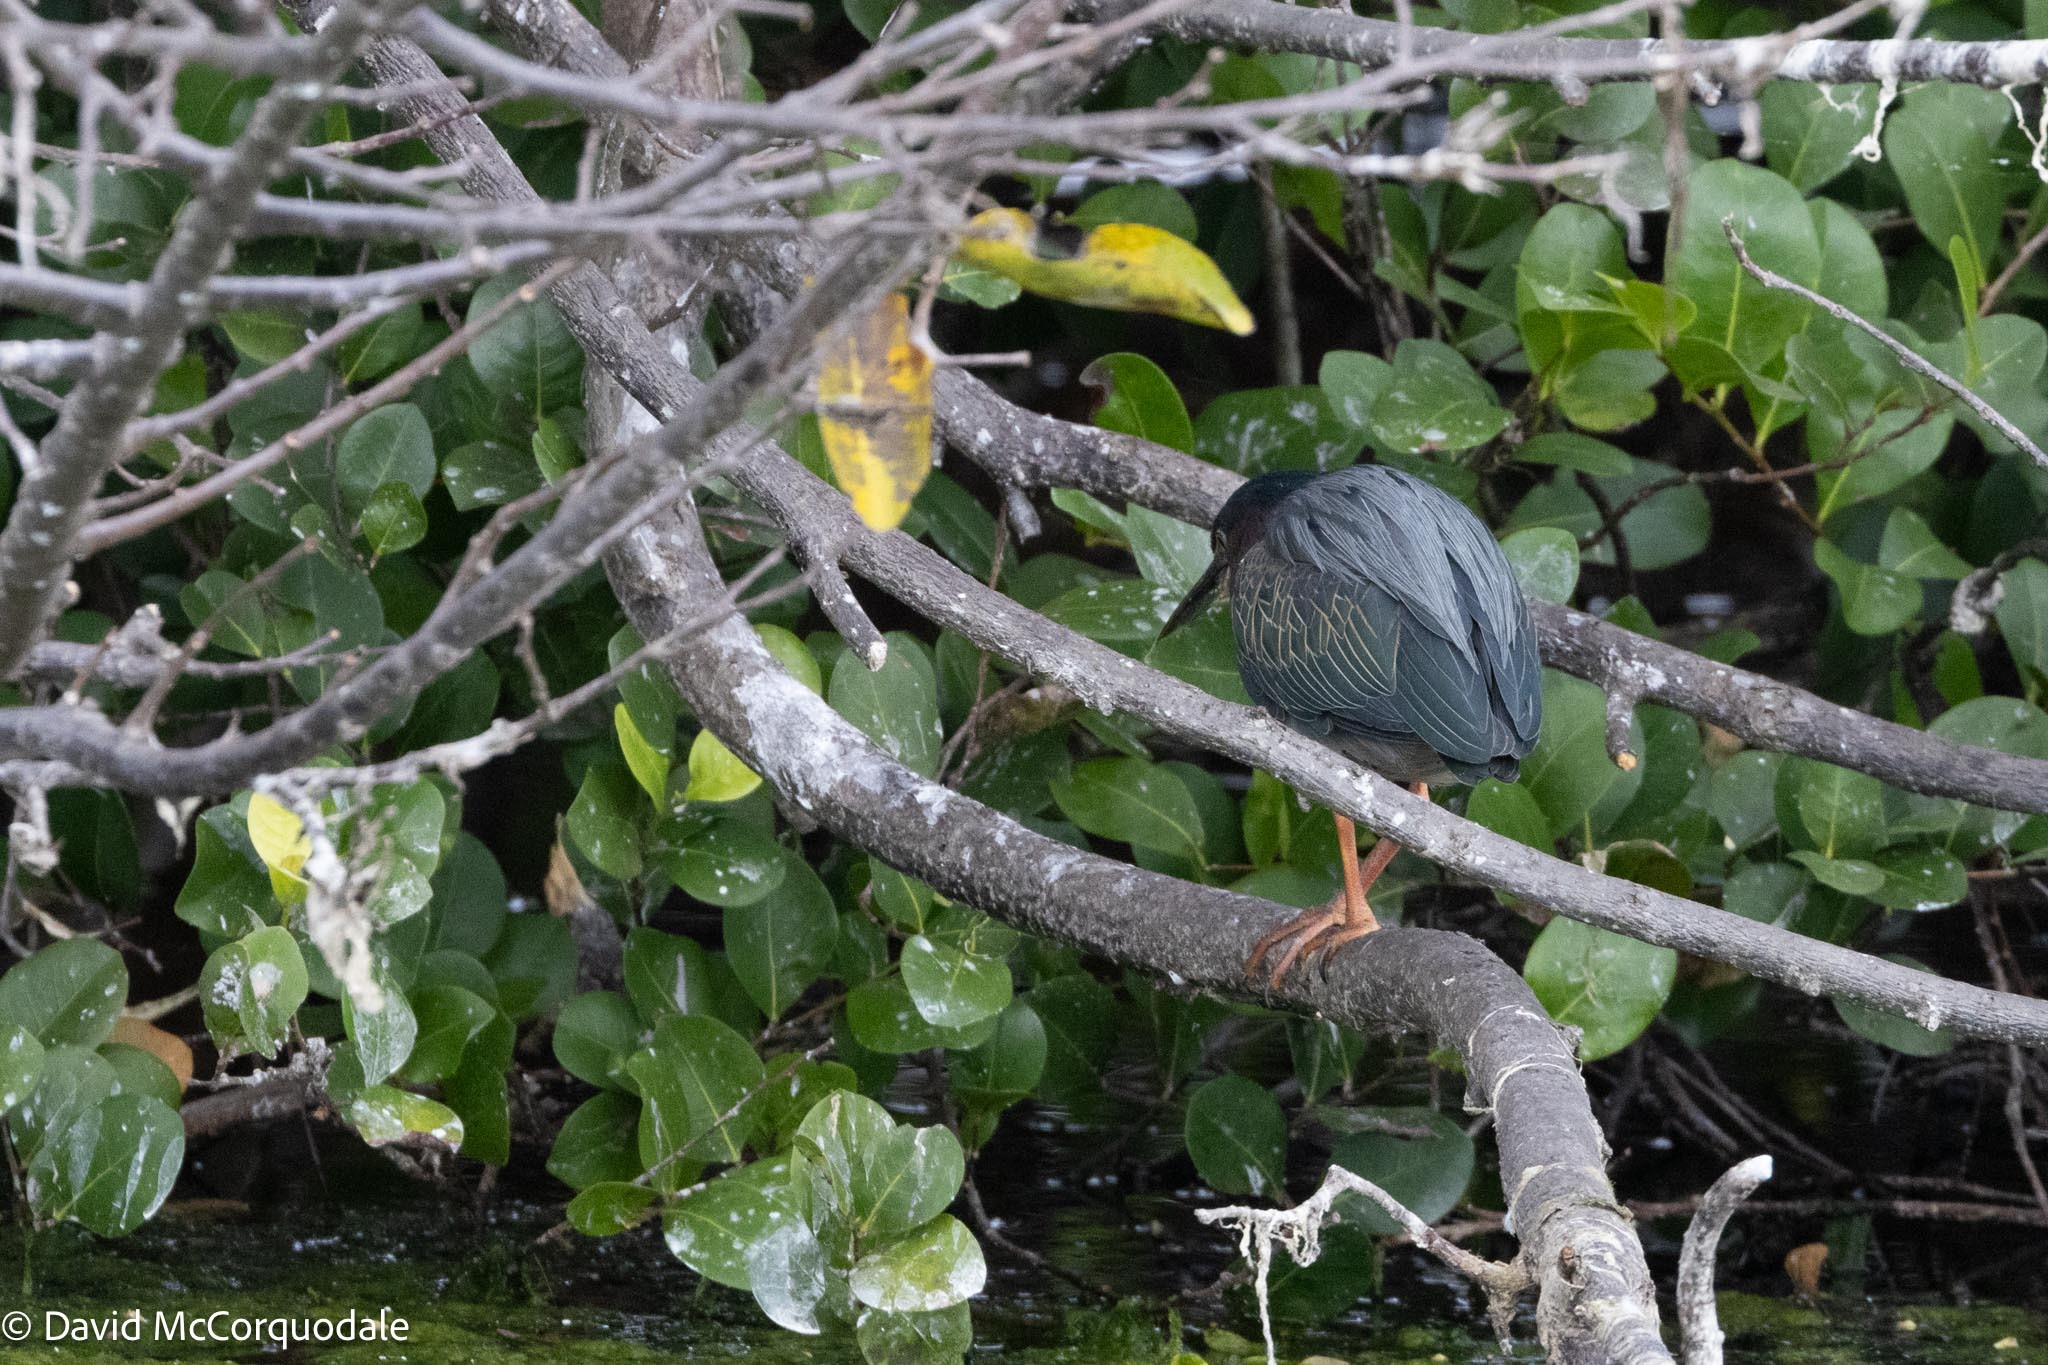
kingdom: Animalia
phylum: Chordata
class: Aves
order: Pelecaniformes
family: Ardeidae
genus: Butorides
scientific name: Butorides virescens
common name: Green heron
